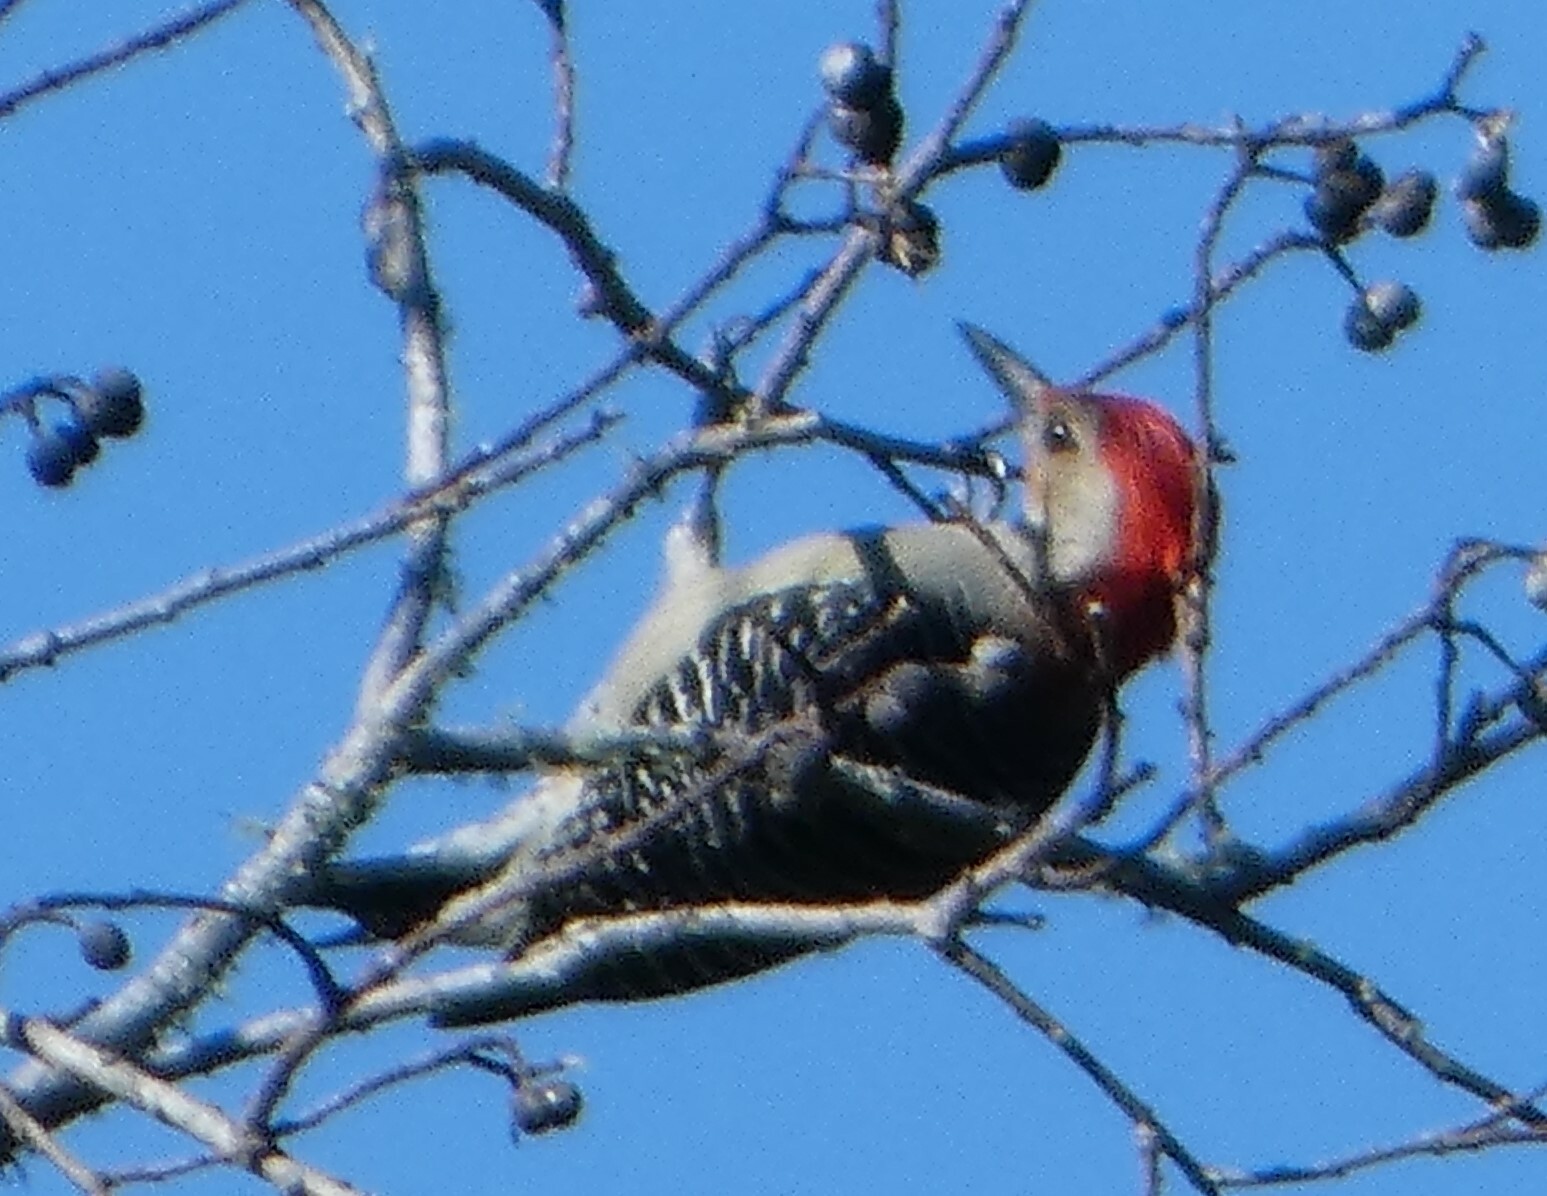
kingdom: Animalia
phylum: Chordata
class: Aves
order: Piciformes
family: Picidae
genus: Melanerpes
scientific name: Melanerpes carolinus
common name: Red-bellied woodpecker
